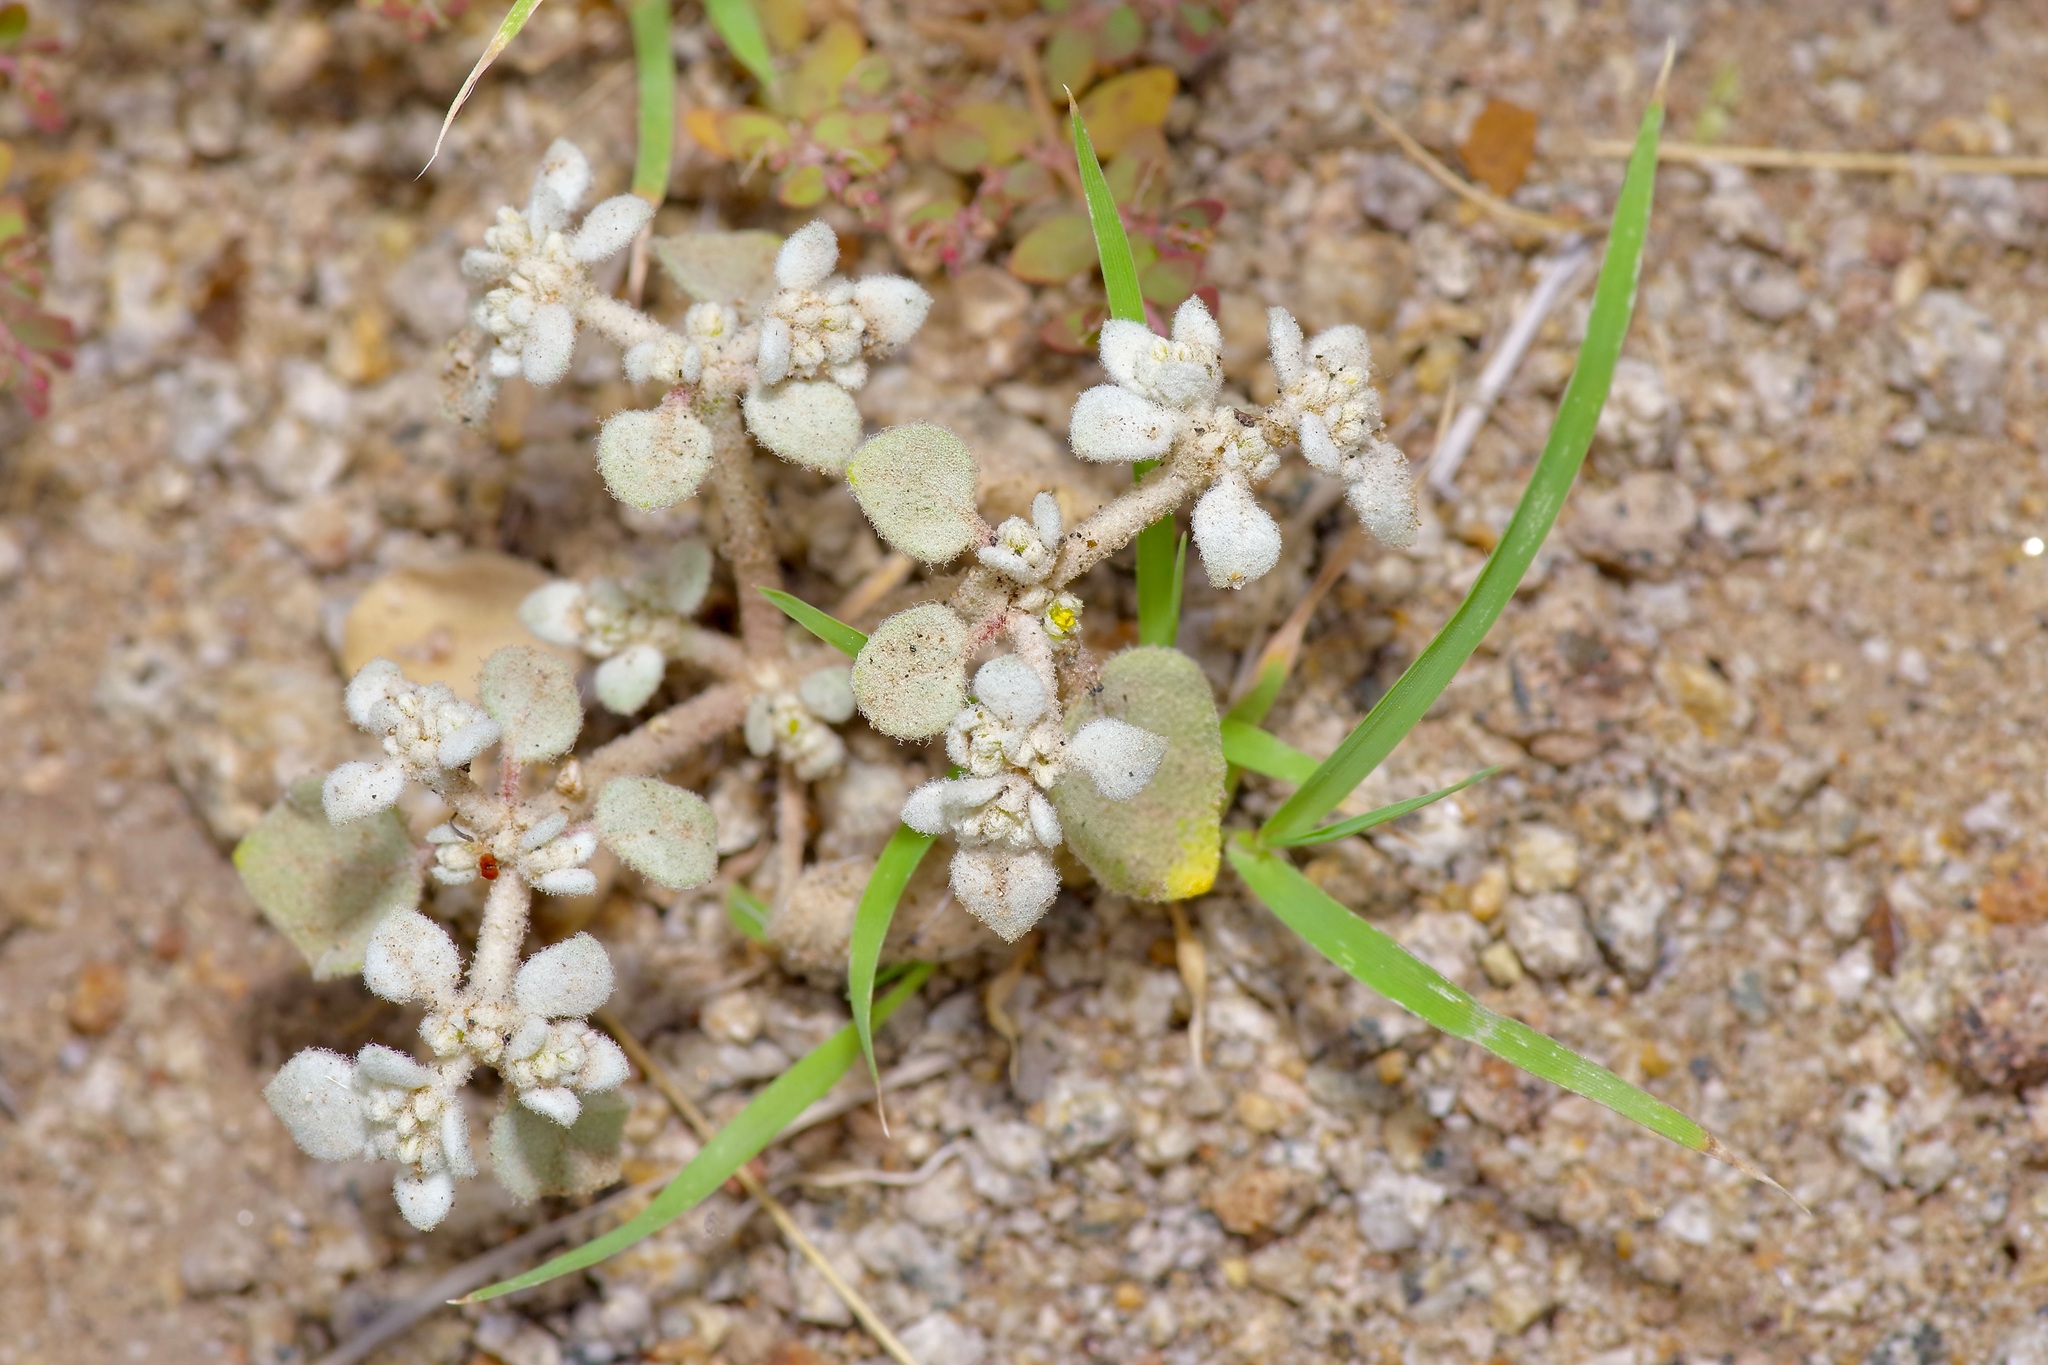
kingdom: Plantae
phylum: Tracheophyta
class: Magnoliopsida
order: Caryophyllales
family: Amaranthaceae
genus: Tidestromia
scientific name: Tidestromia lanuginosa
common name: Woolly tidestromia
